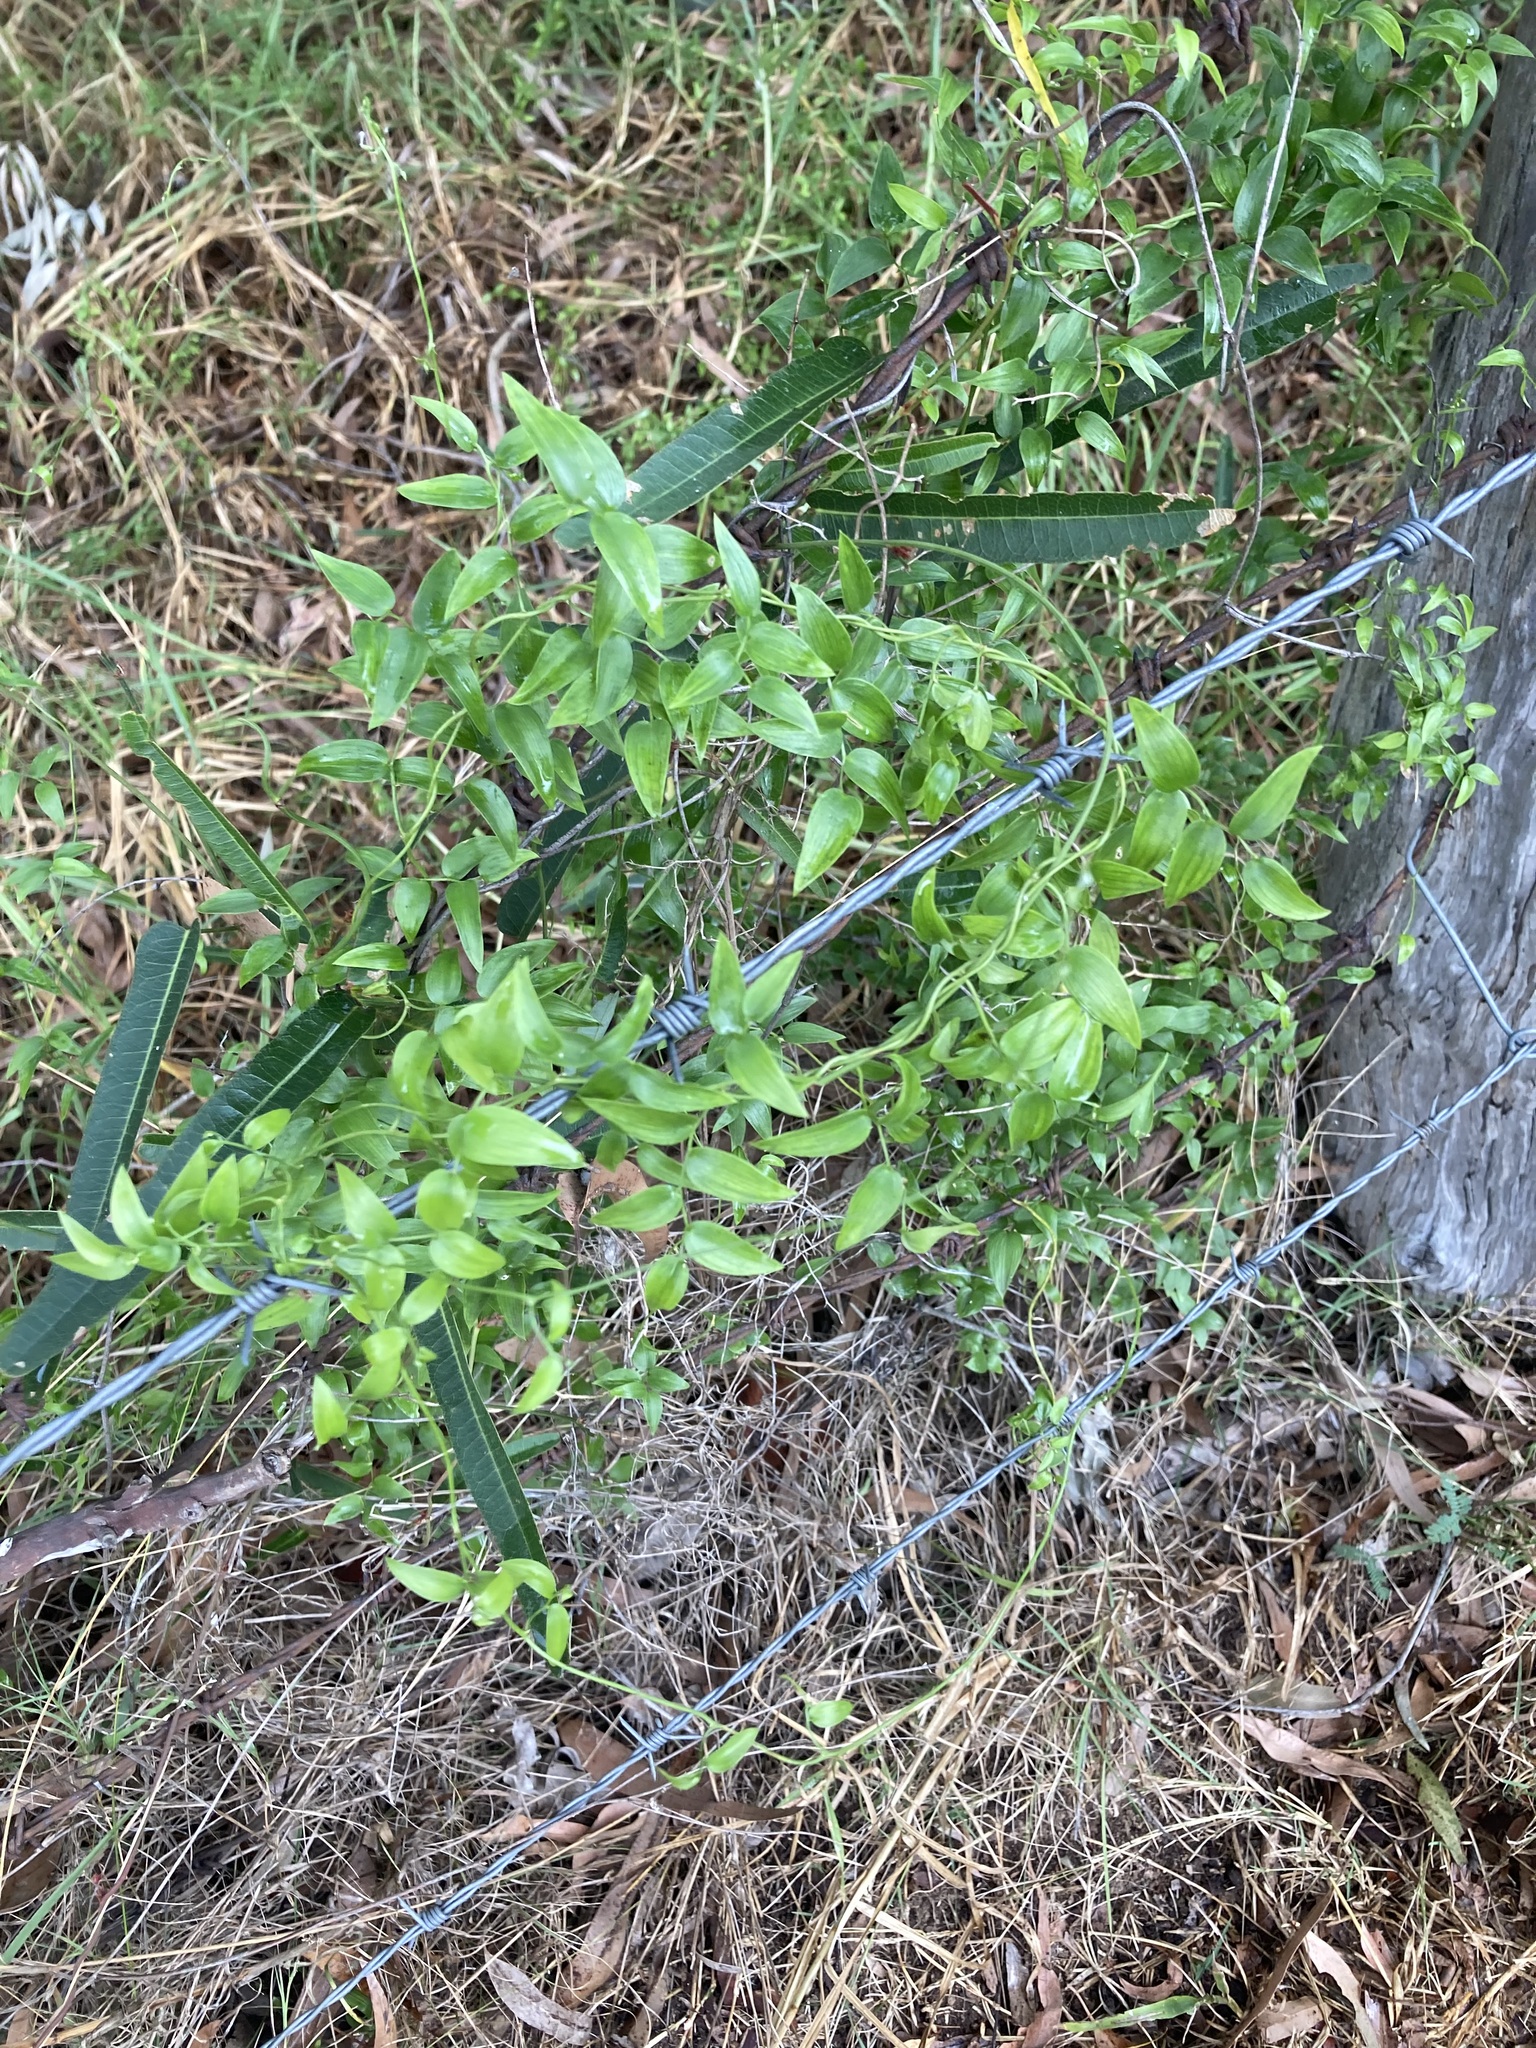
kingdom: Plantae
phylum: Tracheophyta
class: Liliopsida
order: Asparagales
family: Asparagaceae
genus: Asparagus
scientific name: Asparagus asparagoides
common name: African asparagus fern
